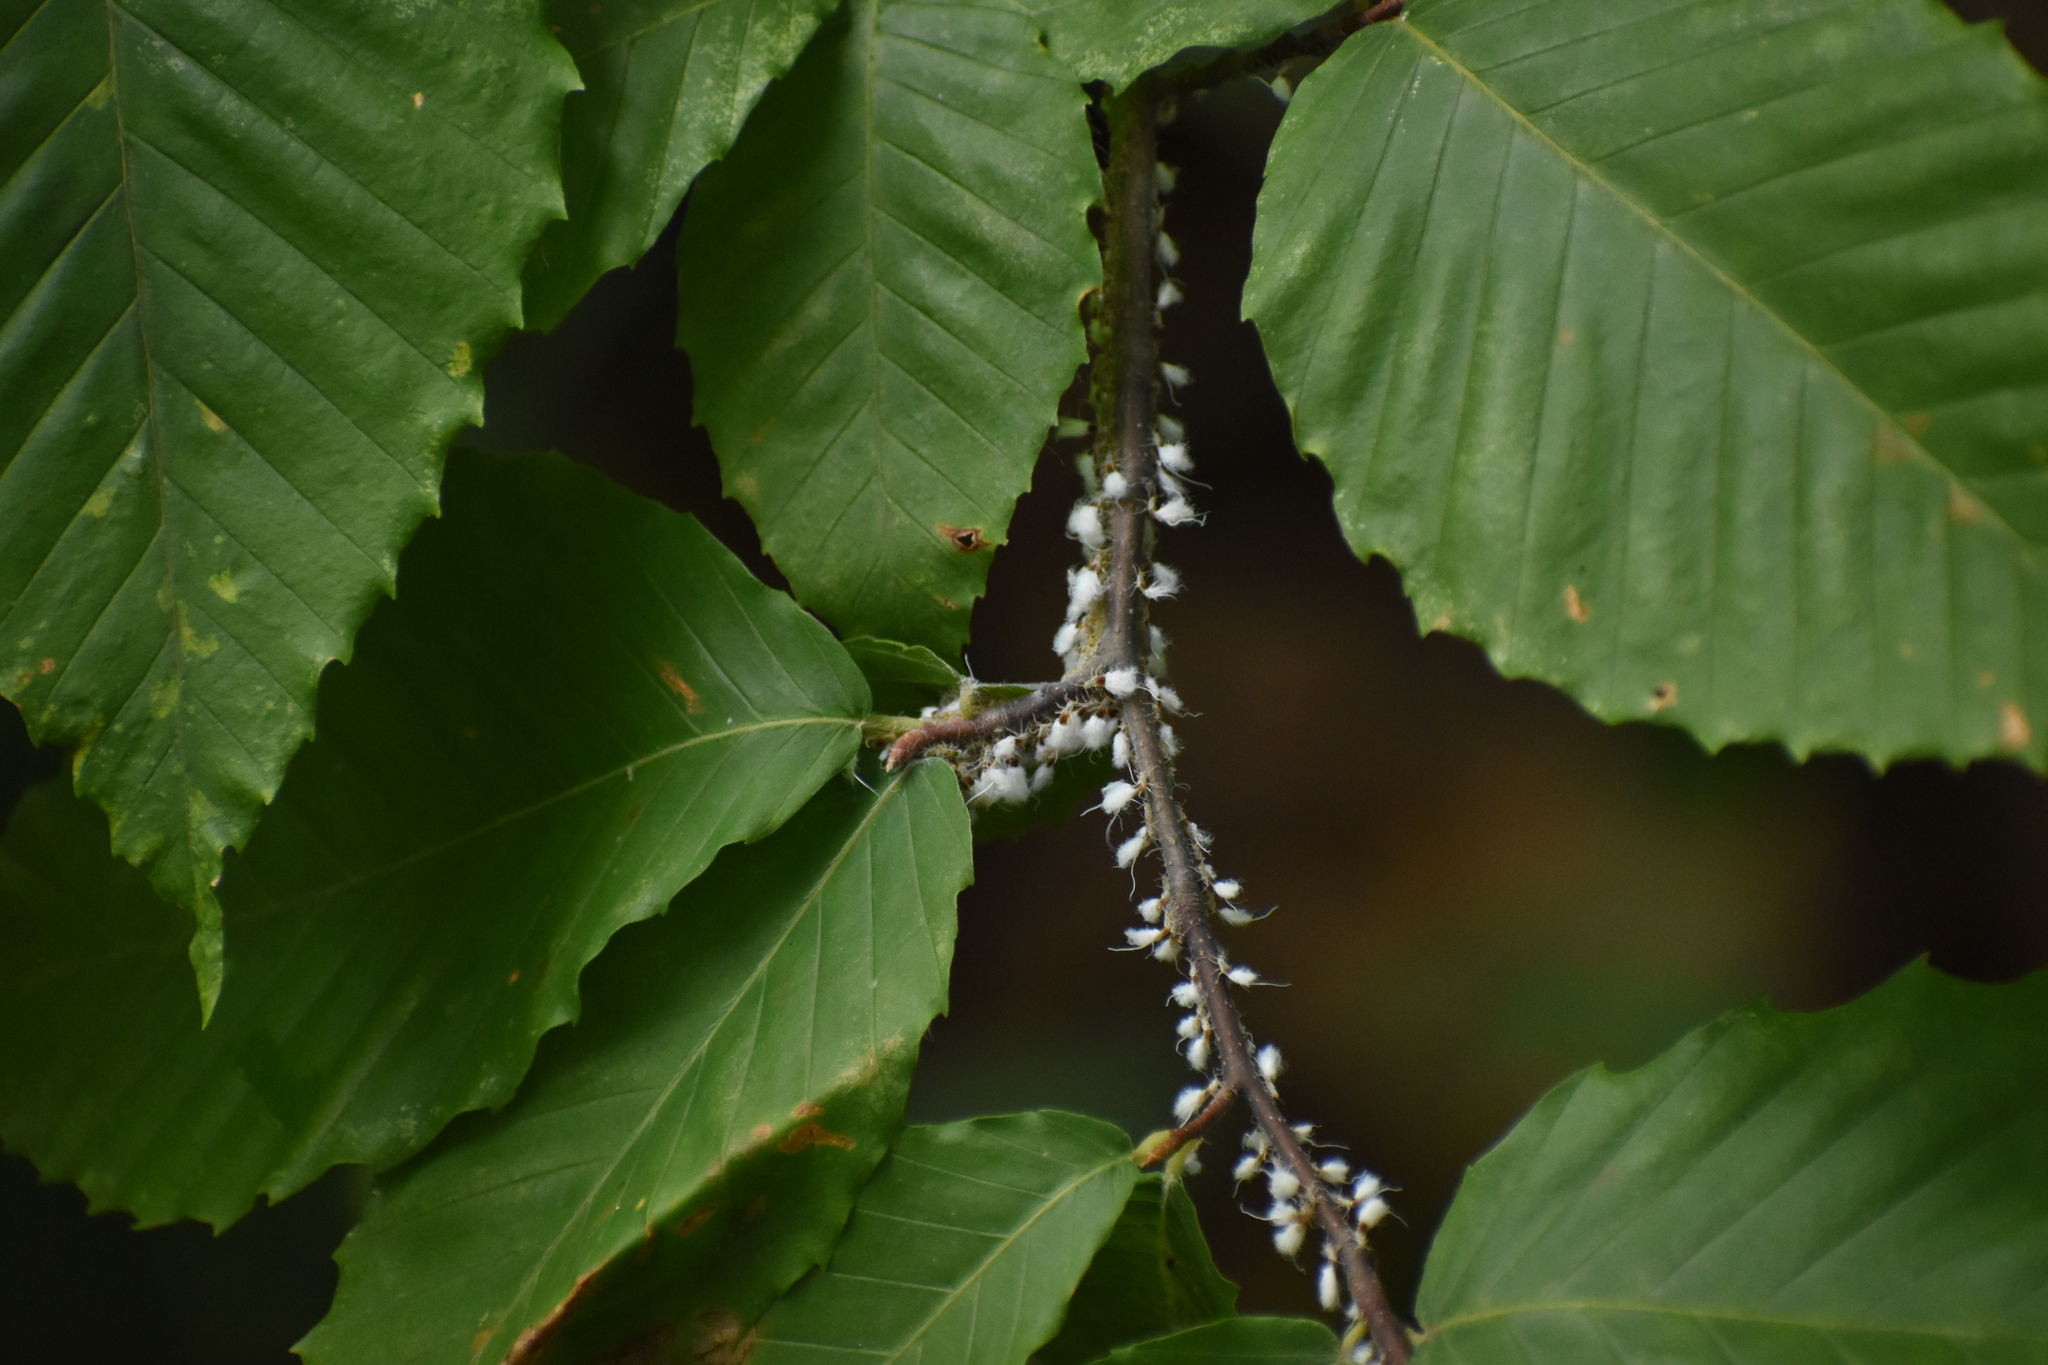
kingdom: Animalia
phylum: Arthropoda
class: Insecta
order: Hemiptera
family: Aphididae
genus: Grylloprociphilus
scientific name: Grylloprociphilus imbricator
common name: Beech blight aphid
